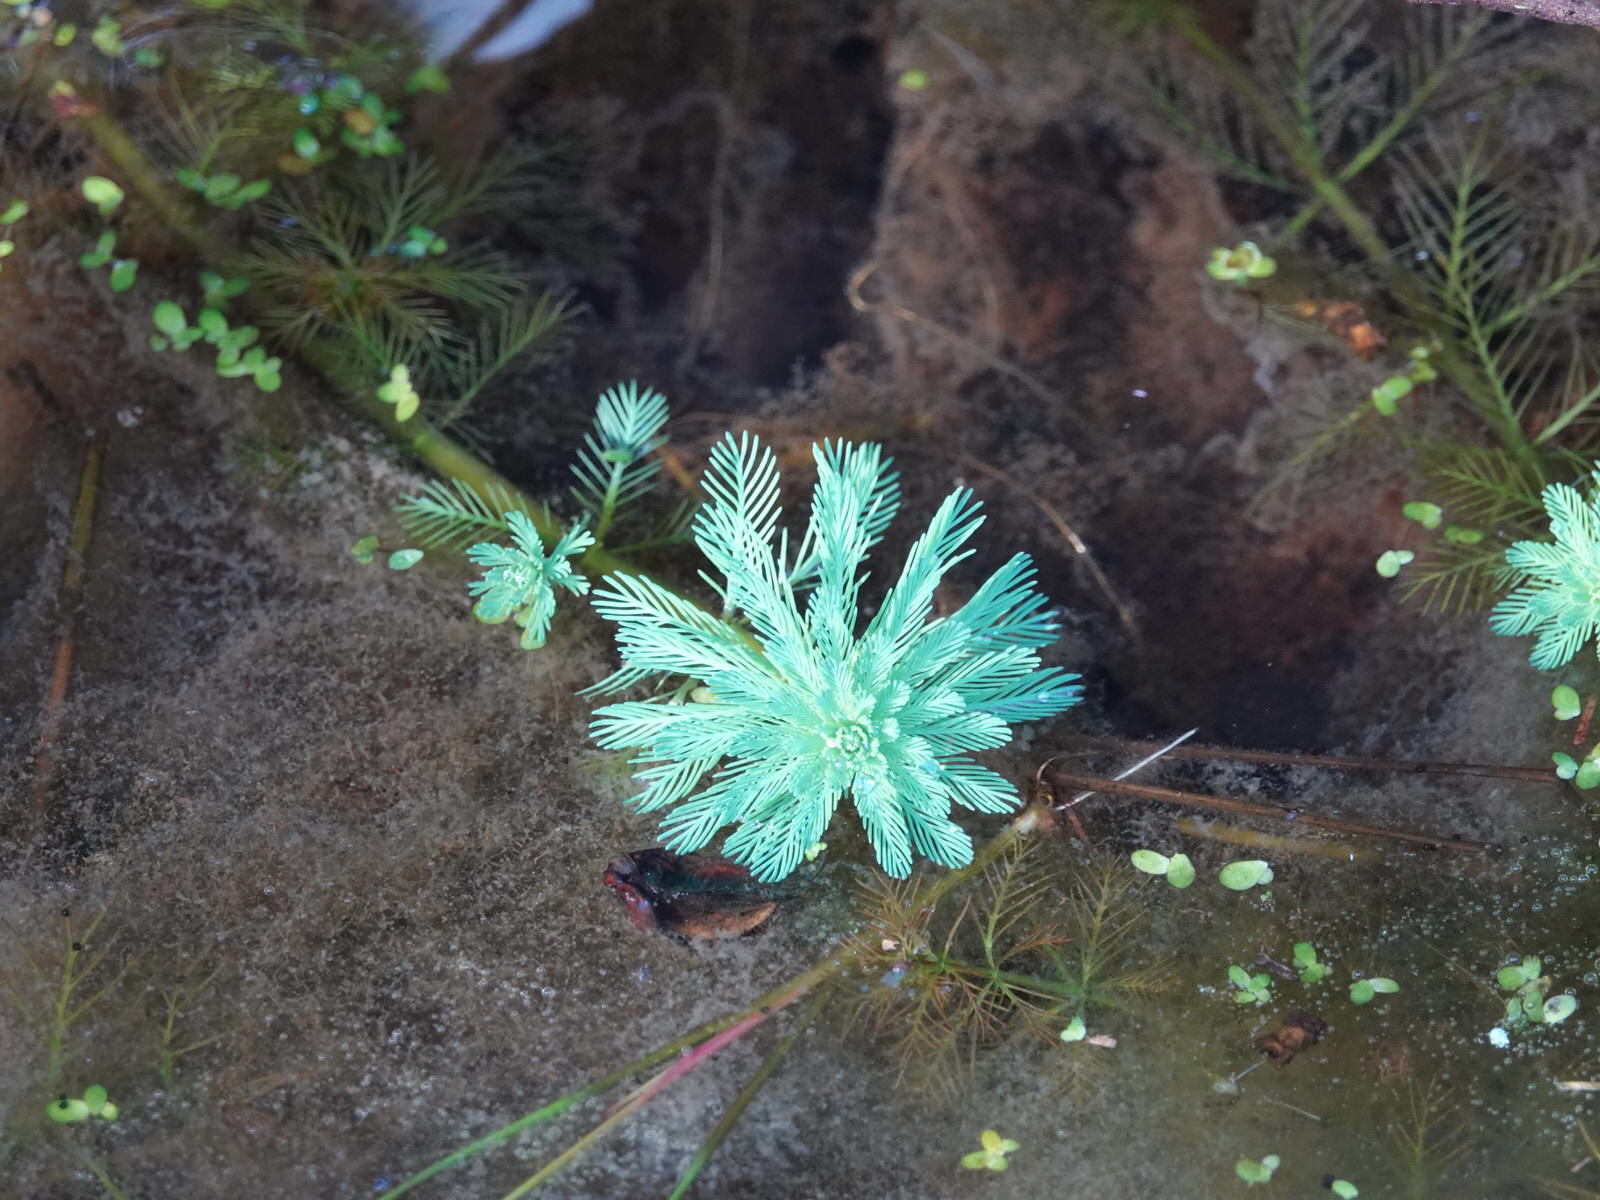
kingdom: Plantae
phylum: Tracheophyta
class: Magnoliopsida
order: Saxifragales
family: Haloragaceae
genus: Myriophyllum
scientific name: Myriophyllum aquaticum
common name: Parrot's feather
